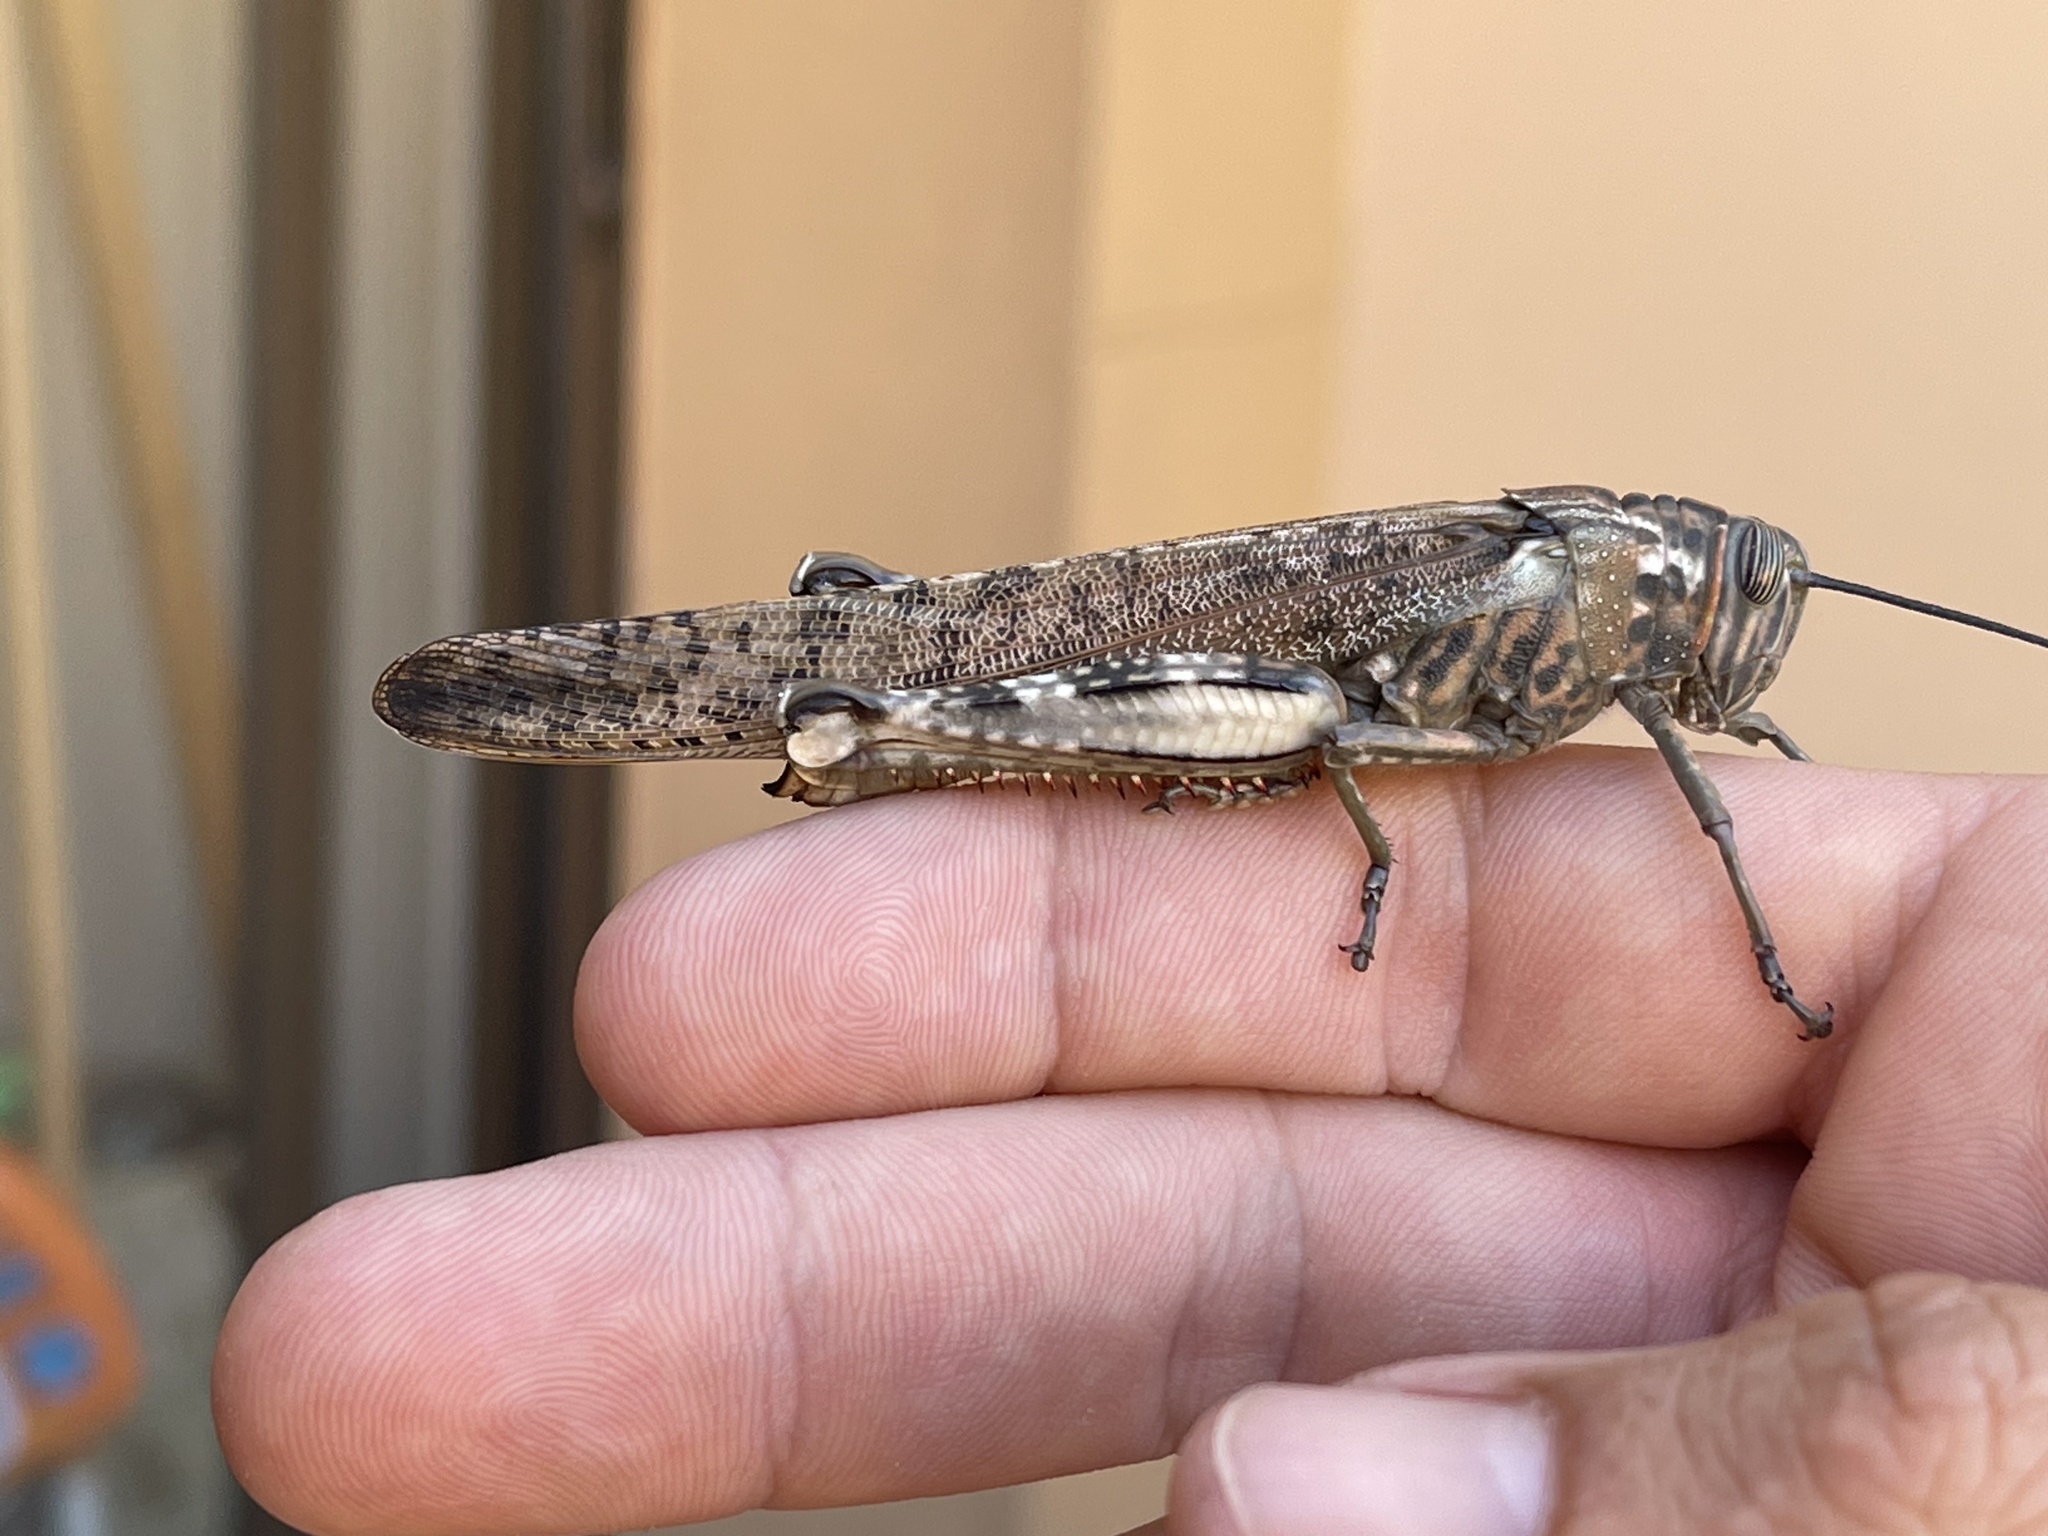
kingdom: Animalia
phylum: Arthropoda
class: Insecta
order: Orthoptera
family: Acrididae
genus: Anacridium
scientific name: Anacridium moestum
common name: Tree locust
